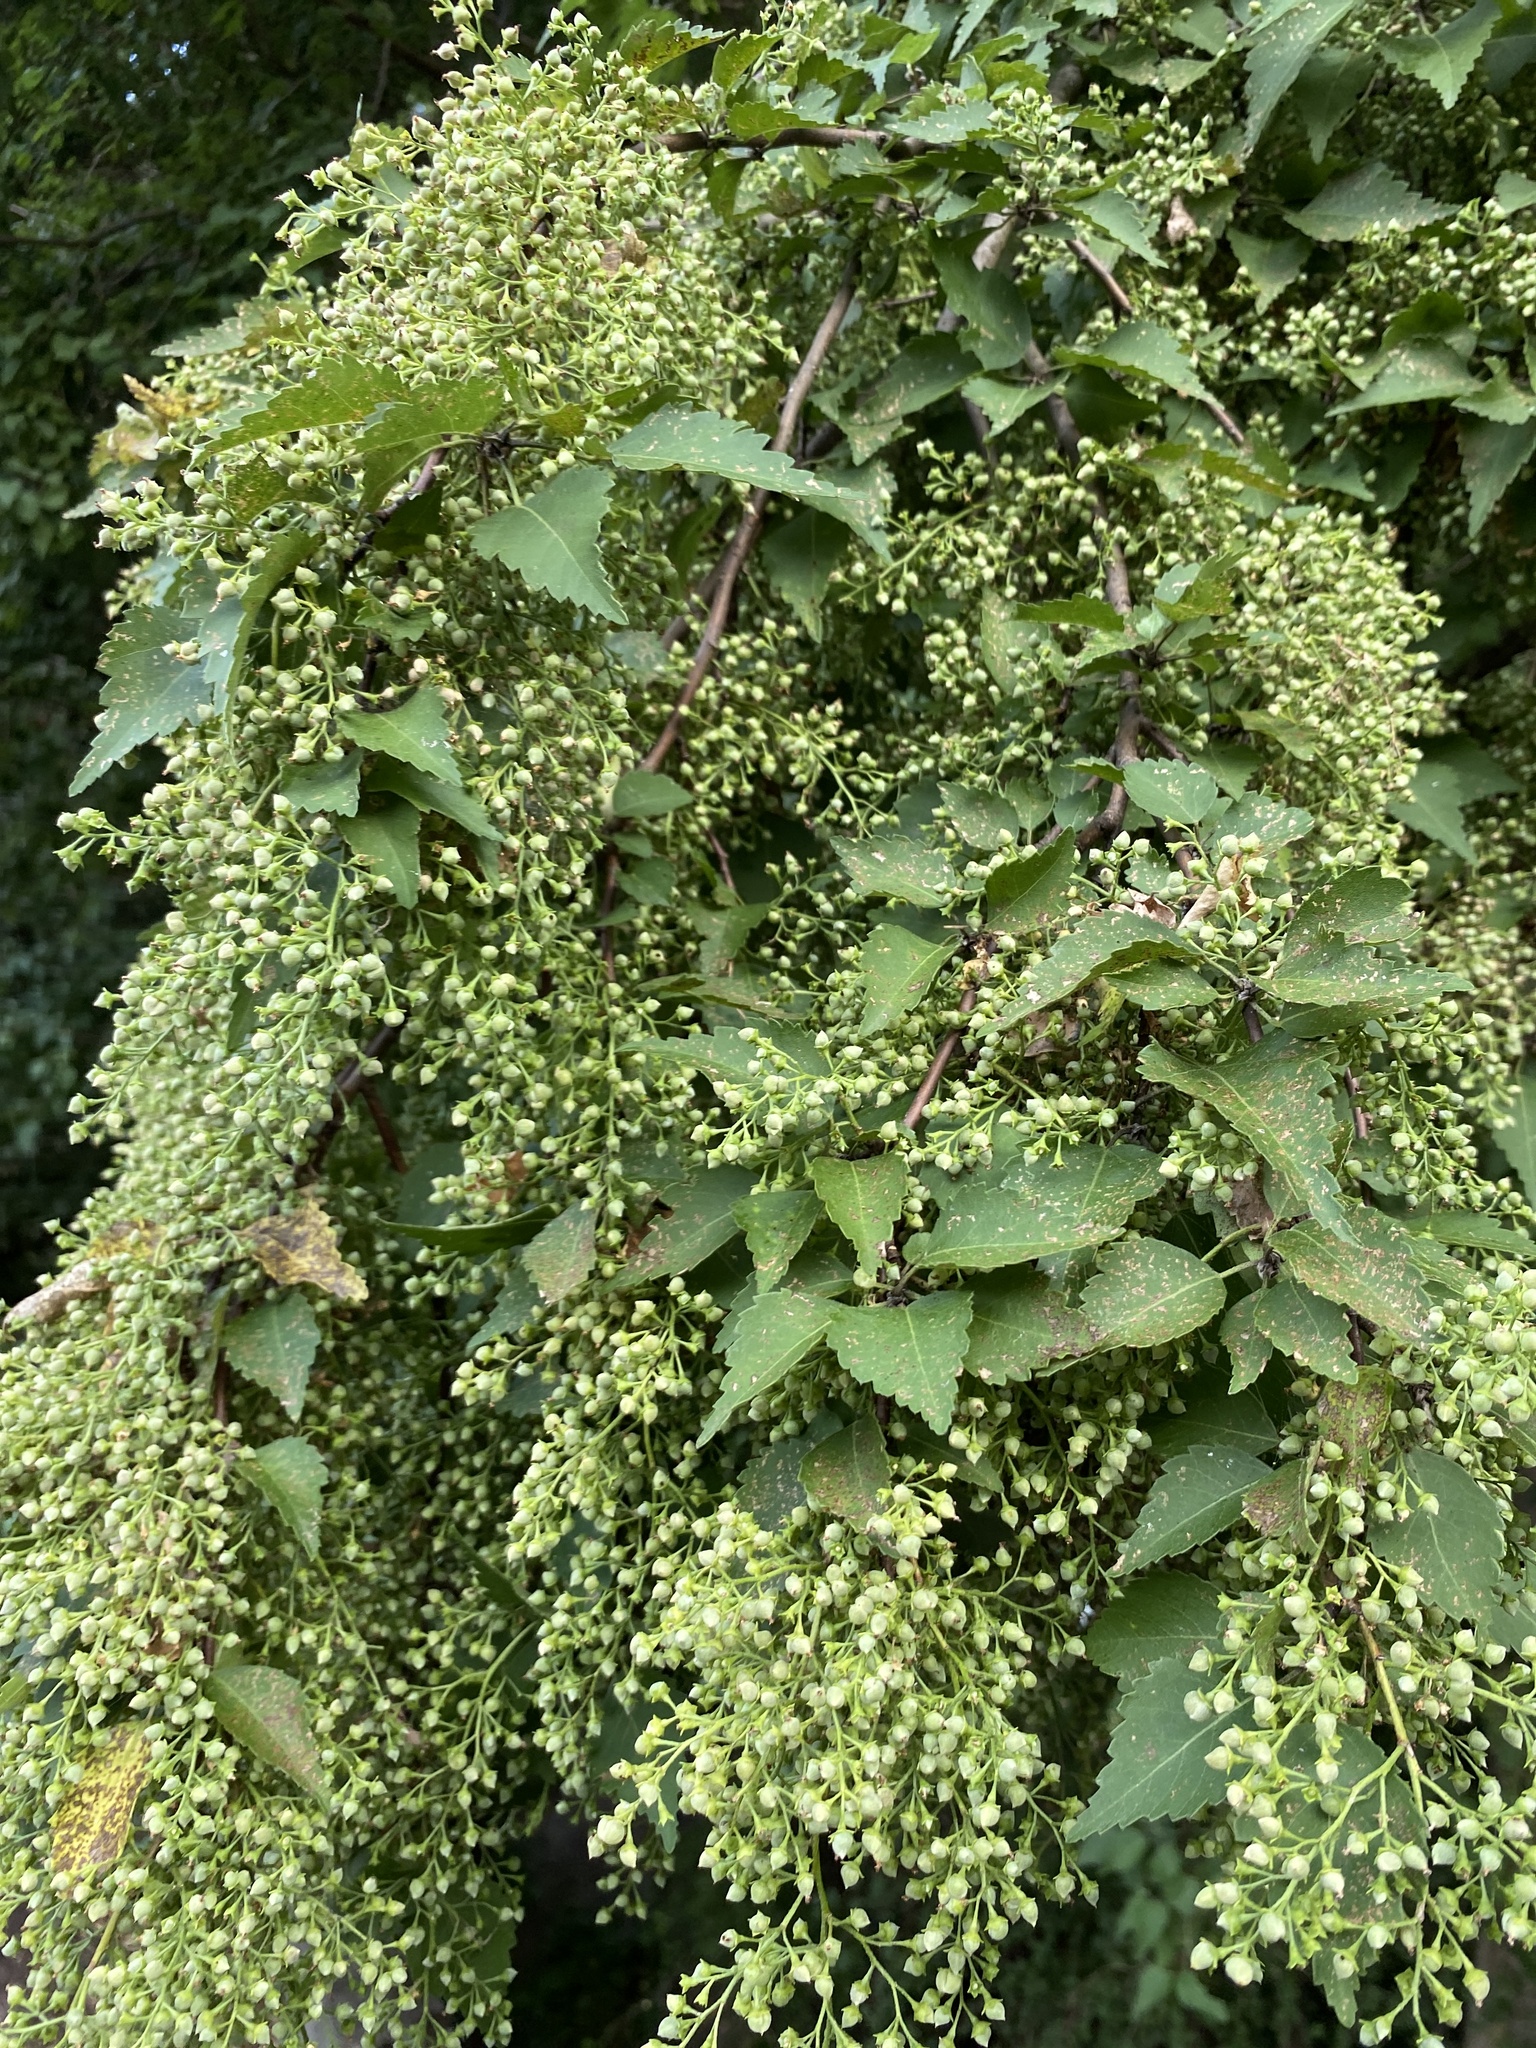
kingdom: Plantae
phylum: Tracheophyta
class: Magnoliopsida
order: Malvales
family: Malvaceae
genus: Plagianthus
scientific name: Plagianthus regius
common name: Manatu
